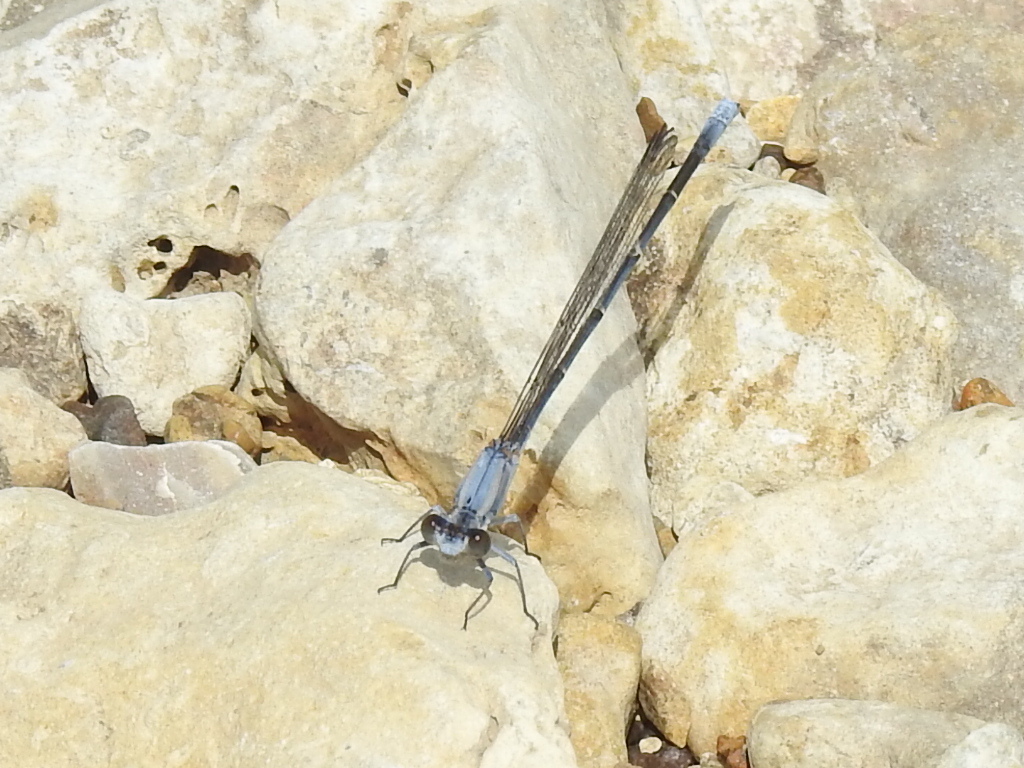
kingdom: Animalia
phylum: Arthropoda
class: Insecta
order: Odonata
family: Coenagrionidae
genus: Argia
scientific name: Argia moesta
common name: Powdered dancer
